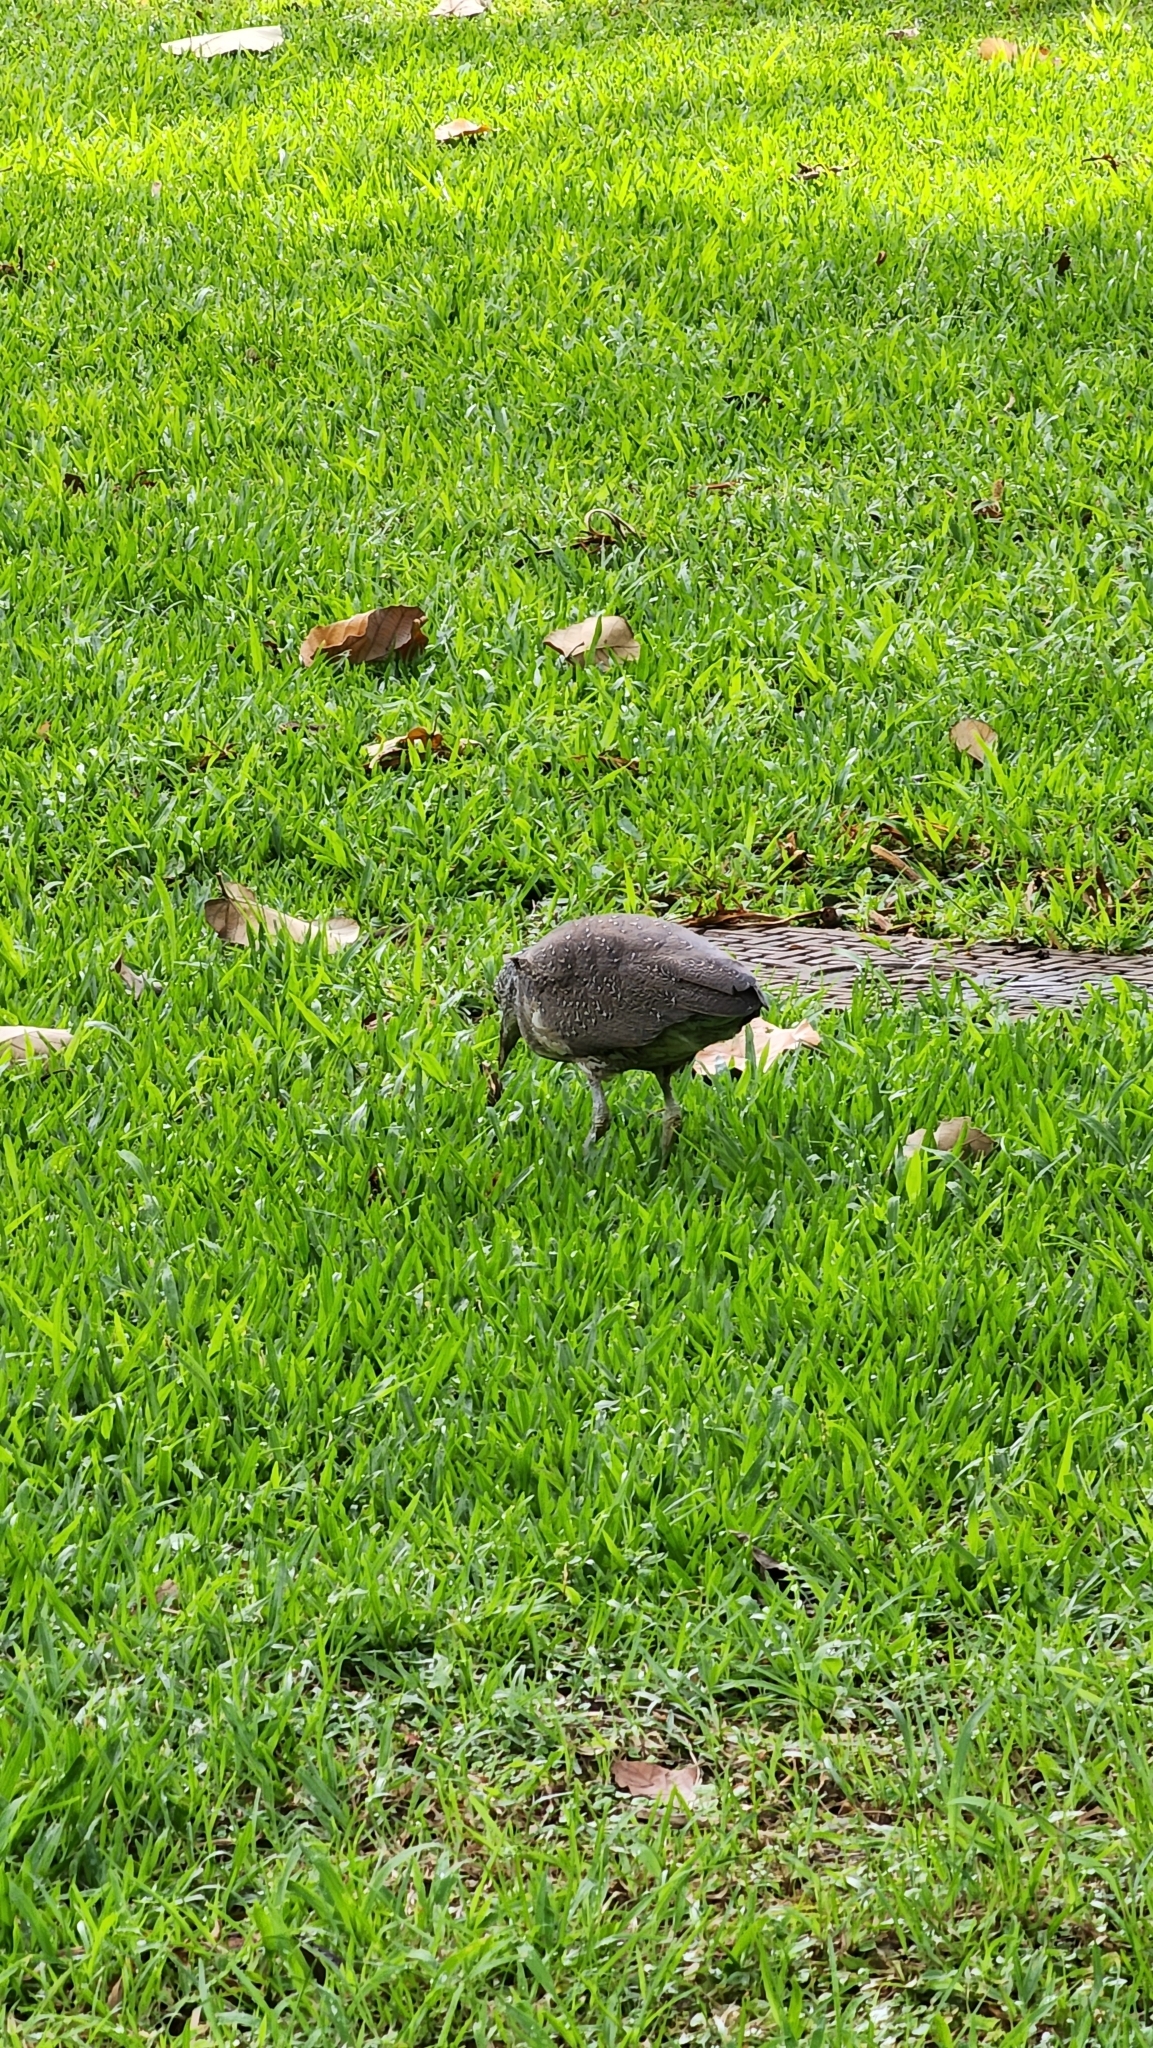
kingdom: Animalia
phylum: Chordata
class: Aves
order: Pelecaniformes
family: Ardeidae
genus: Gorsachius
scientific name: Gorsachius melanolophus
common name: Malayan night heron
